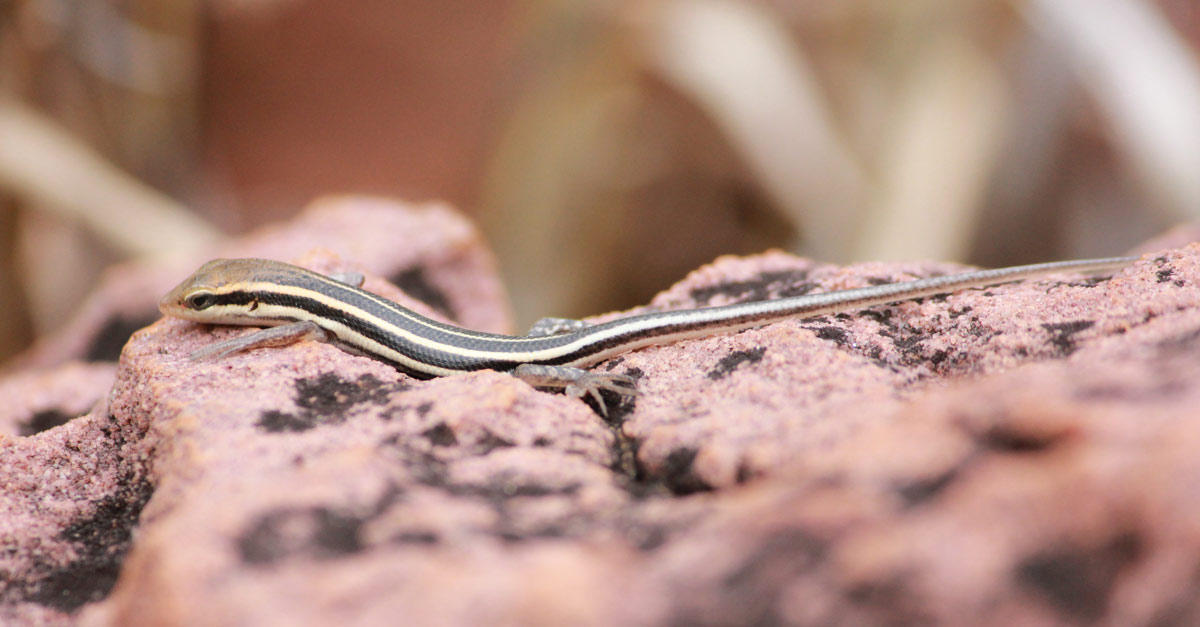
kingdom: Animalia
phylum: Chordata
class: Squamata
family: Scincidae
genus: Trachylepis
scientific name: Trachylepis margaritifera
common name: Rainbow skink
